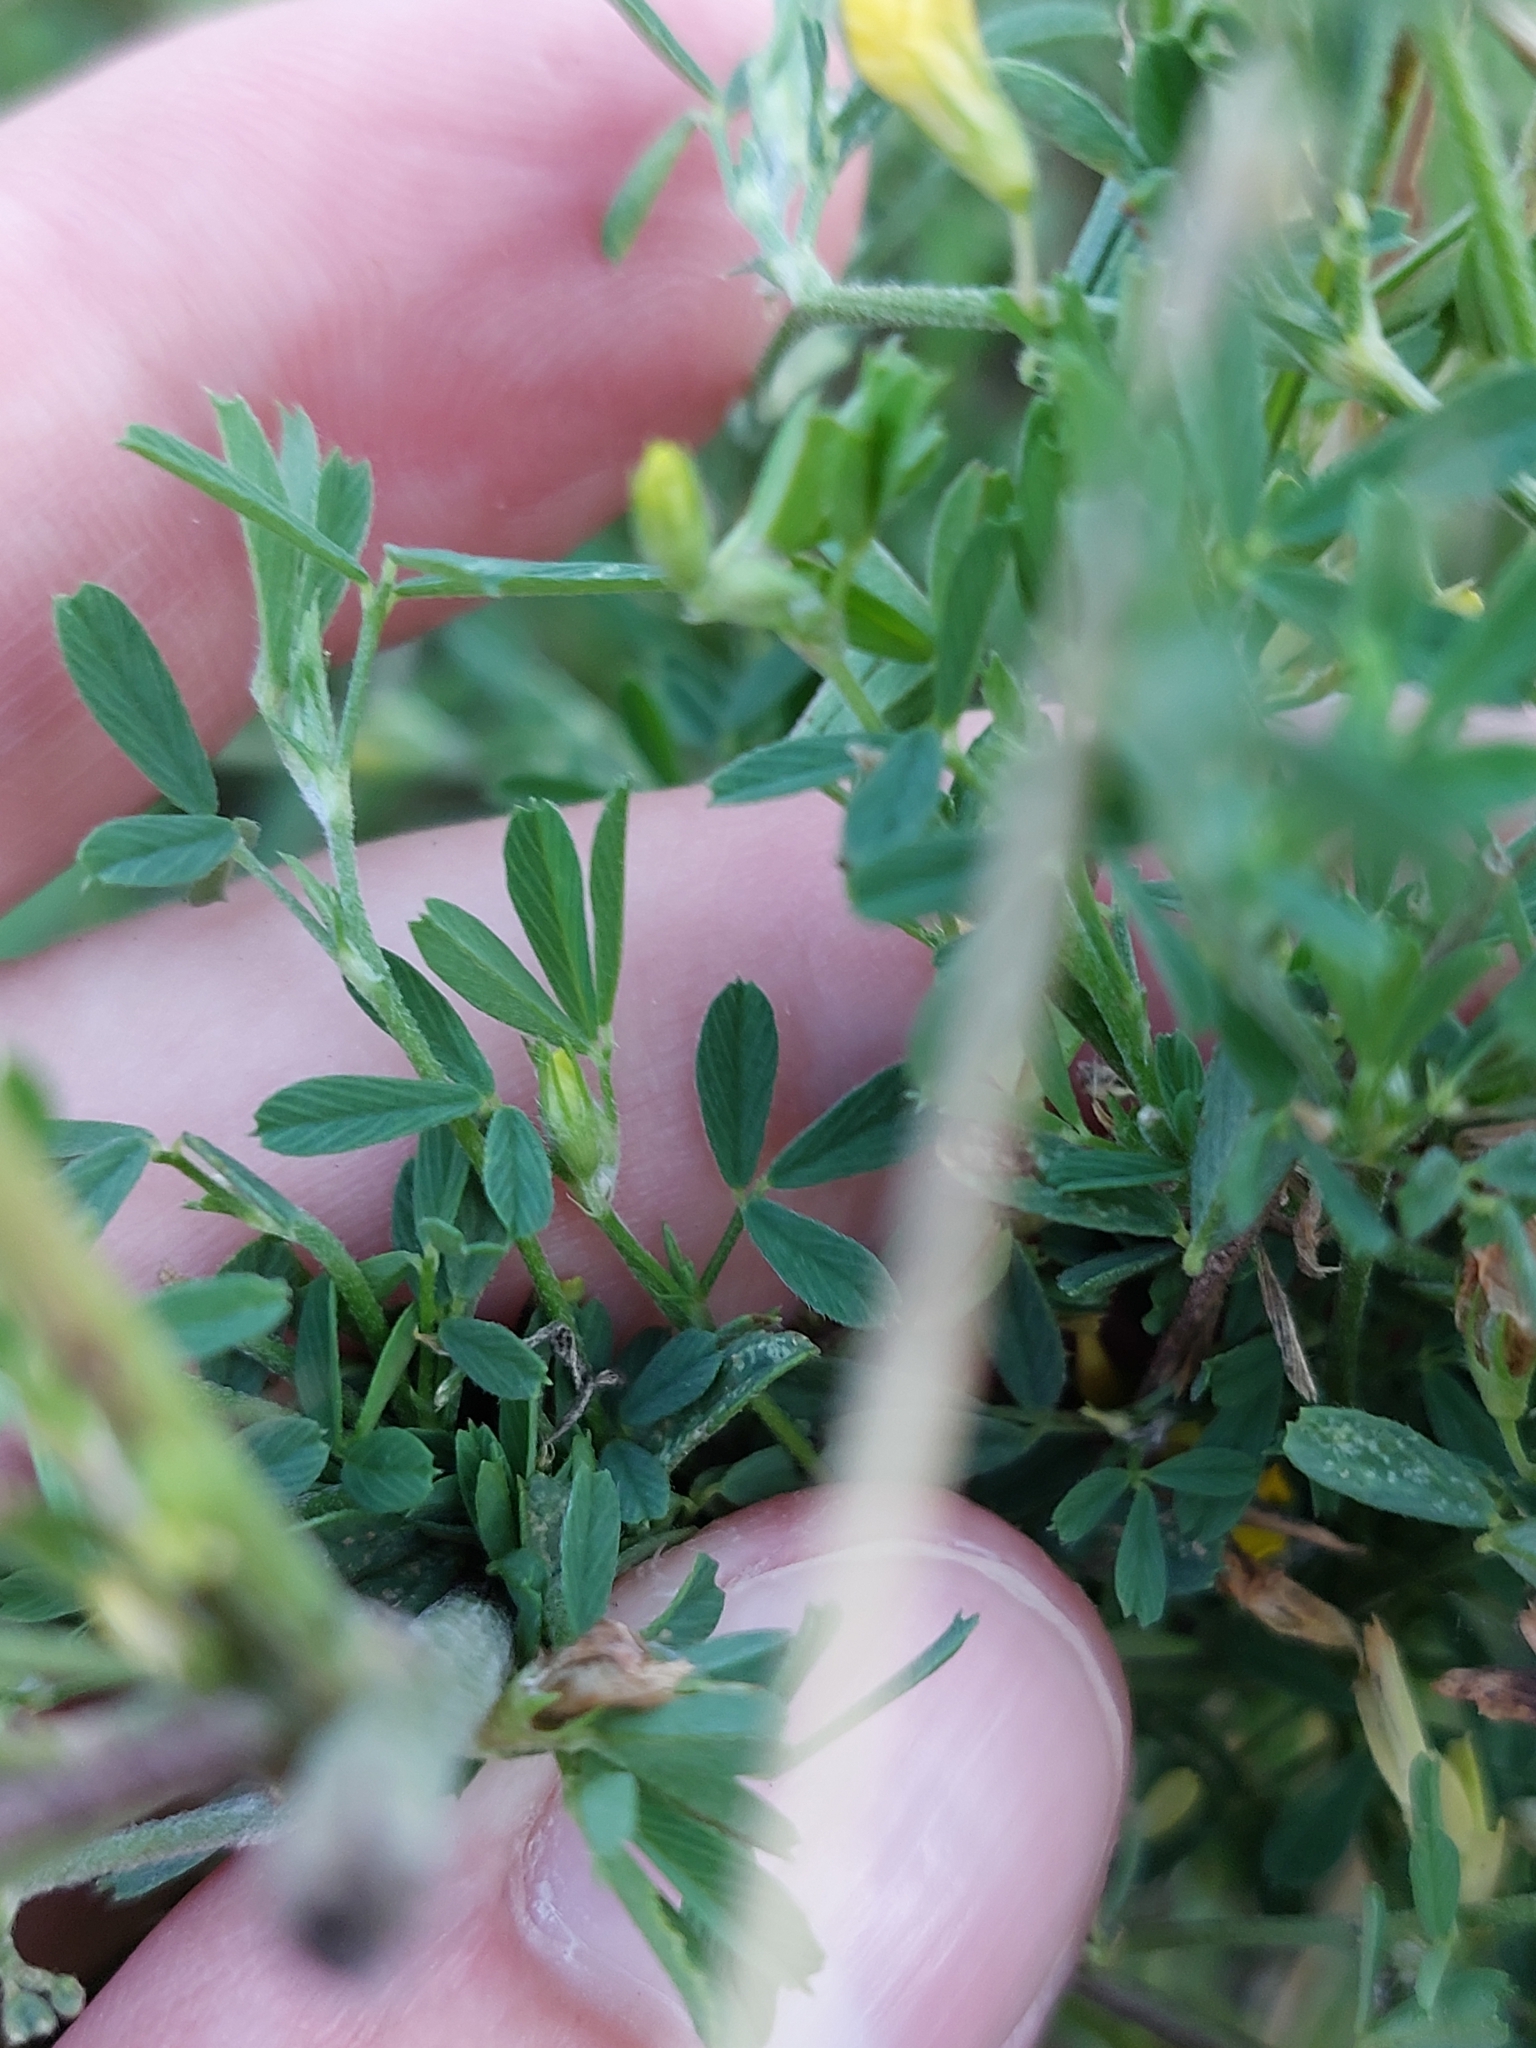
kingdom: Plantae
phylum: Tracheophyta
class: Magnoliopsida
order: Fabales
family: Fabaceae
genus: Medicago
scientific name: Medicago falcata
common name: Sickle medick
